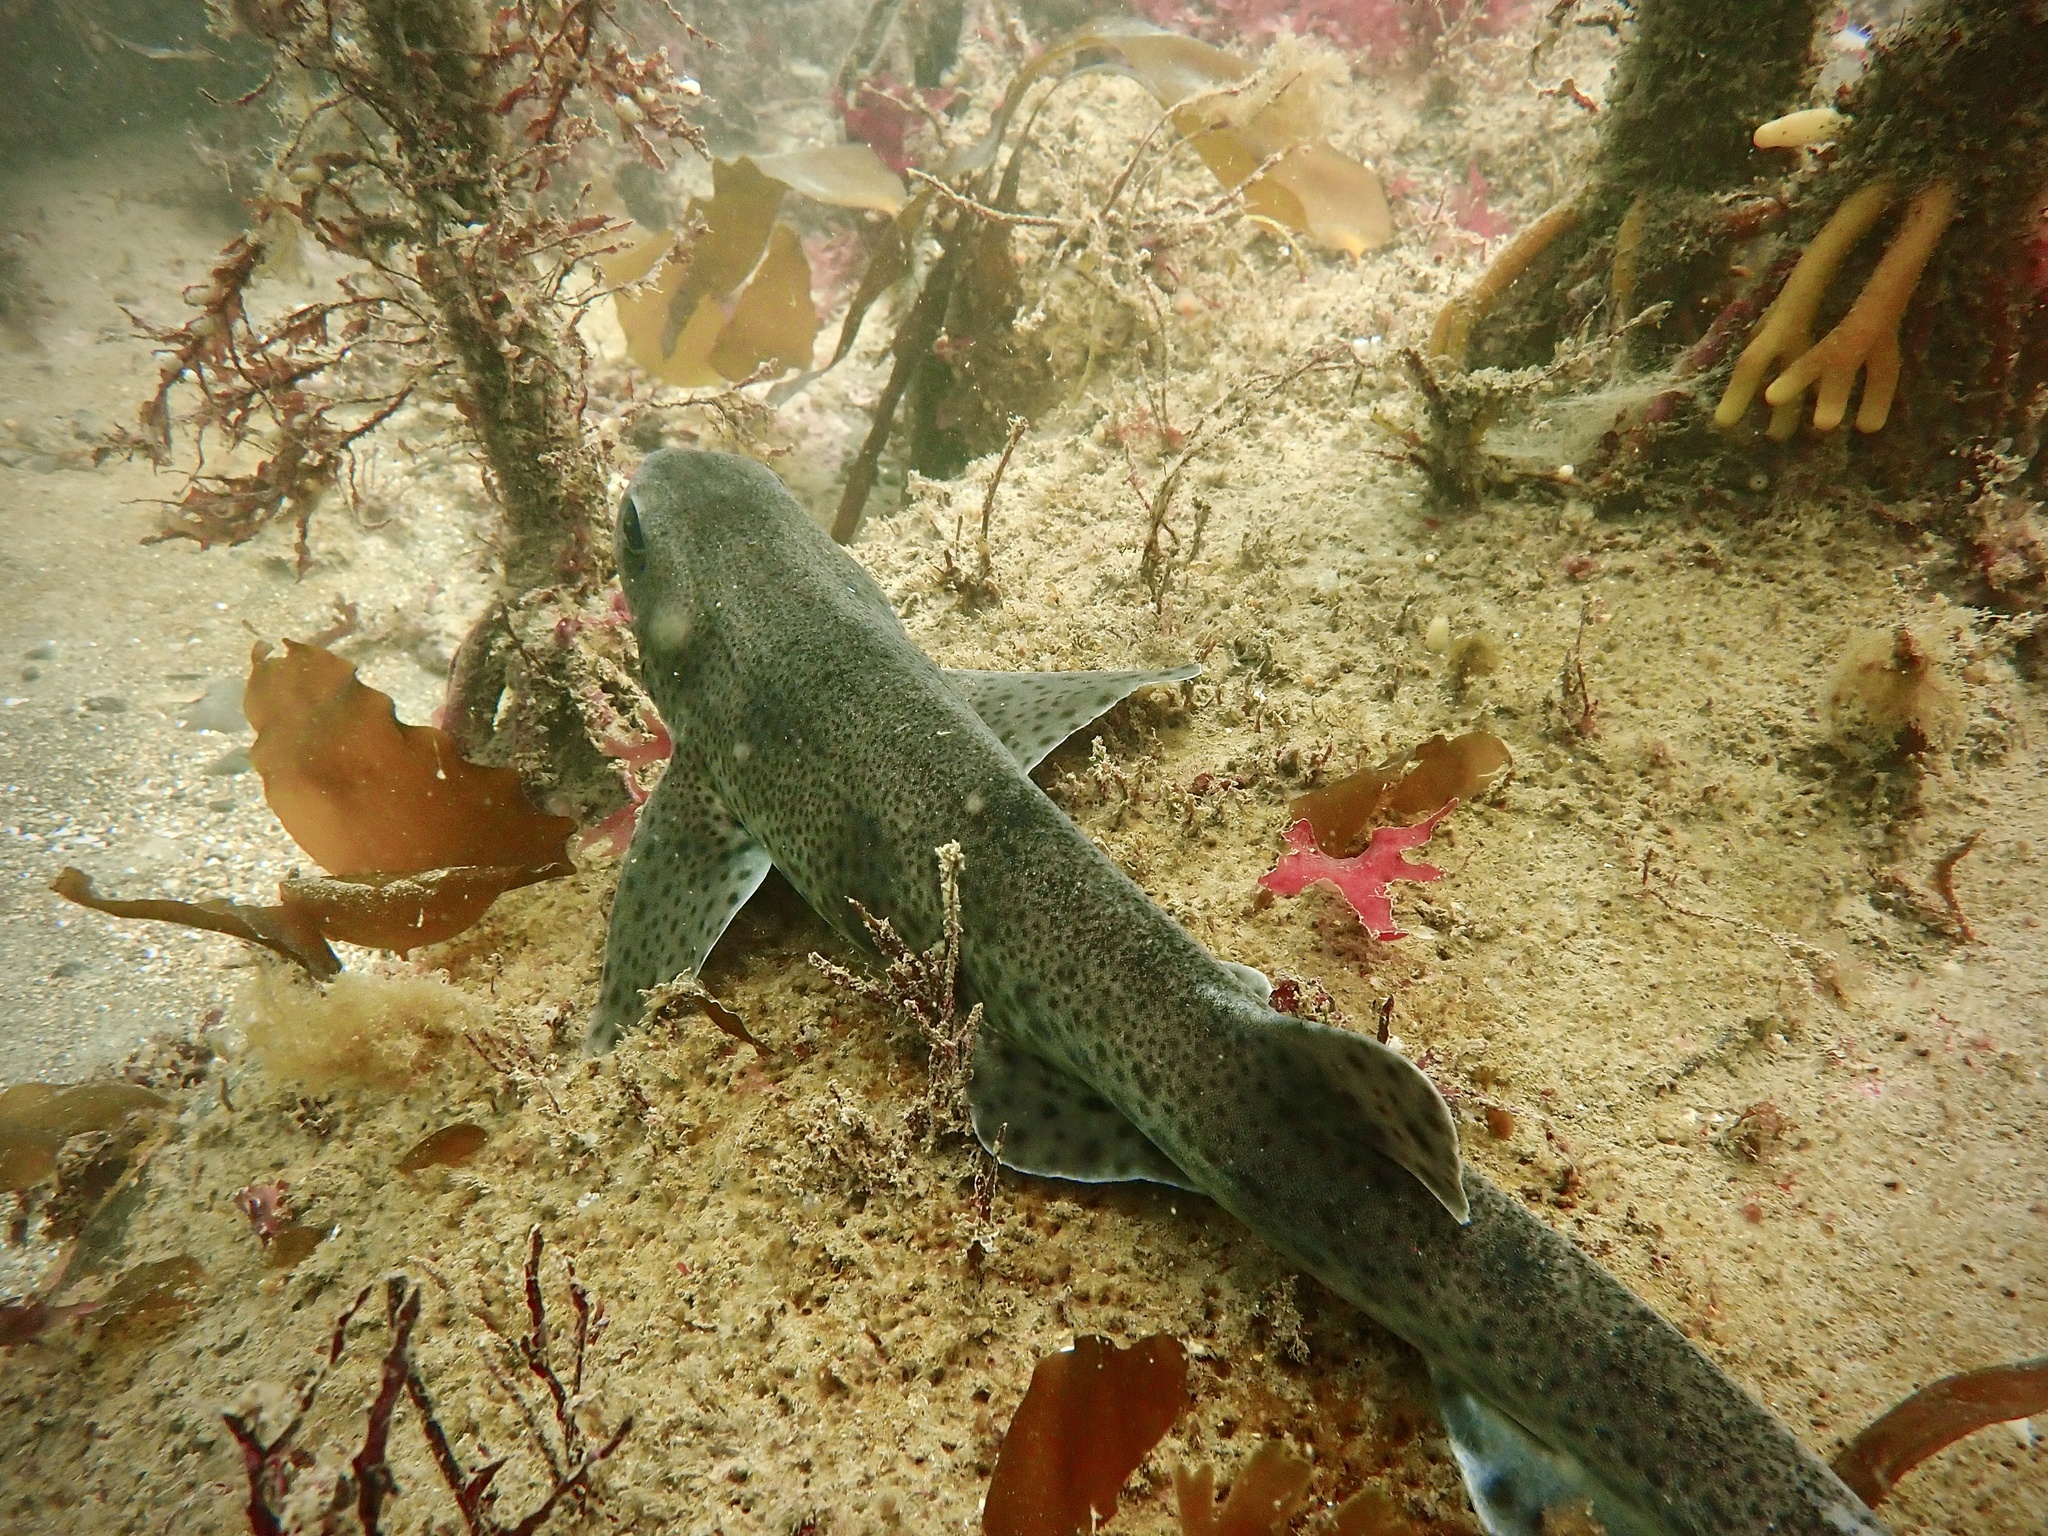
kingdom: Animalia
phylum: Chordata
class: Elasmobranchii
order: Carcharhiniformes
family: Scyliorhinidae
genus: Scyliorhinus
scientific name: Scyliorhinus canicula
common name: Lesser spotted dogfish
